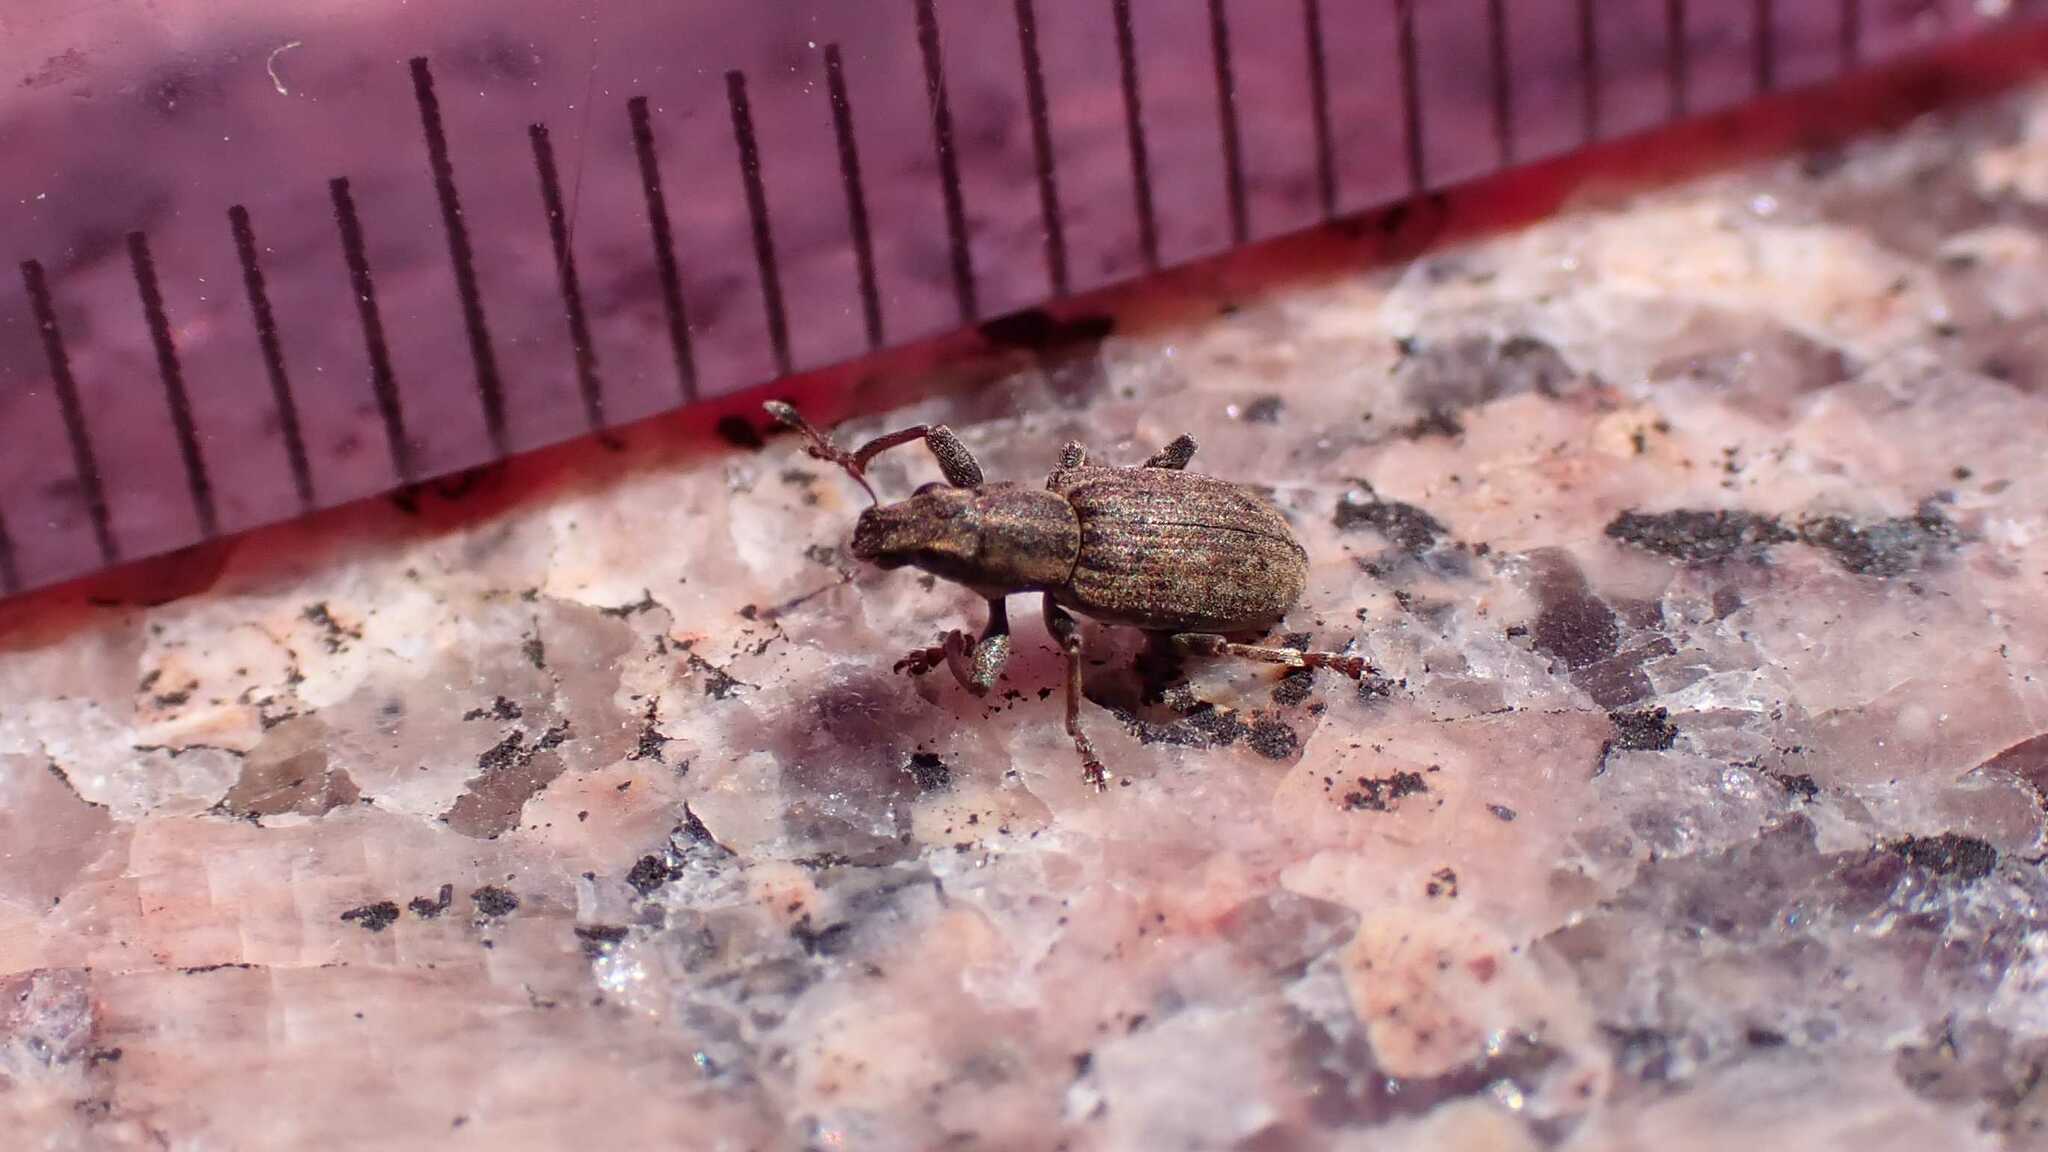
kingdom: Animalia
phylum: Arthropoda
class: Insecta
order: Coleoptera
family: Curculionidae
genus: Sitona
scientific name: Sitona obsoletus
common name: Weevil
